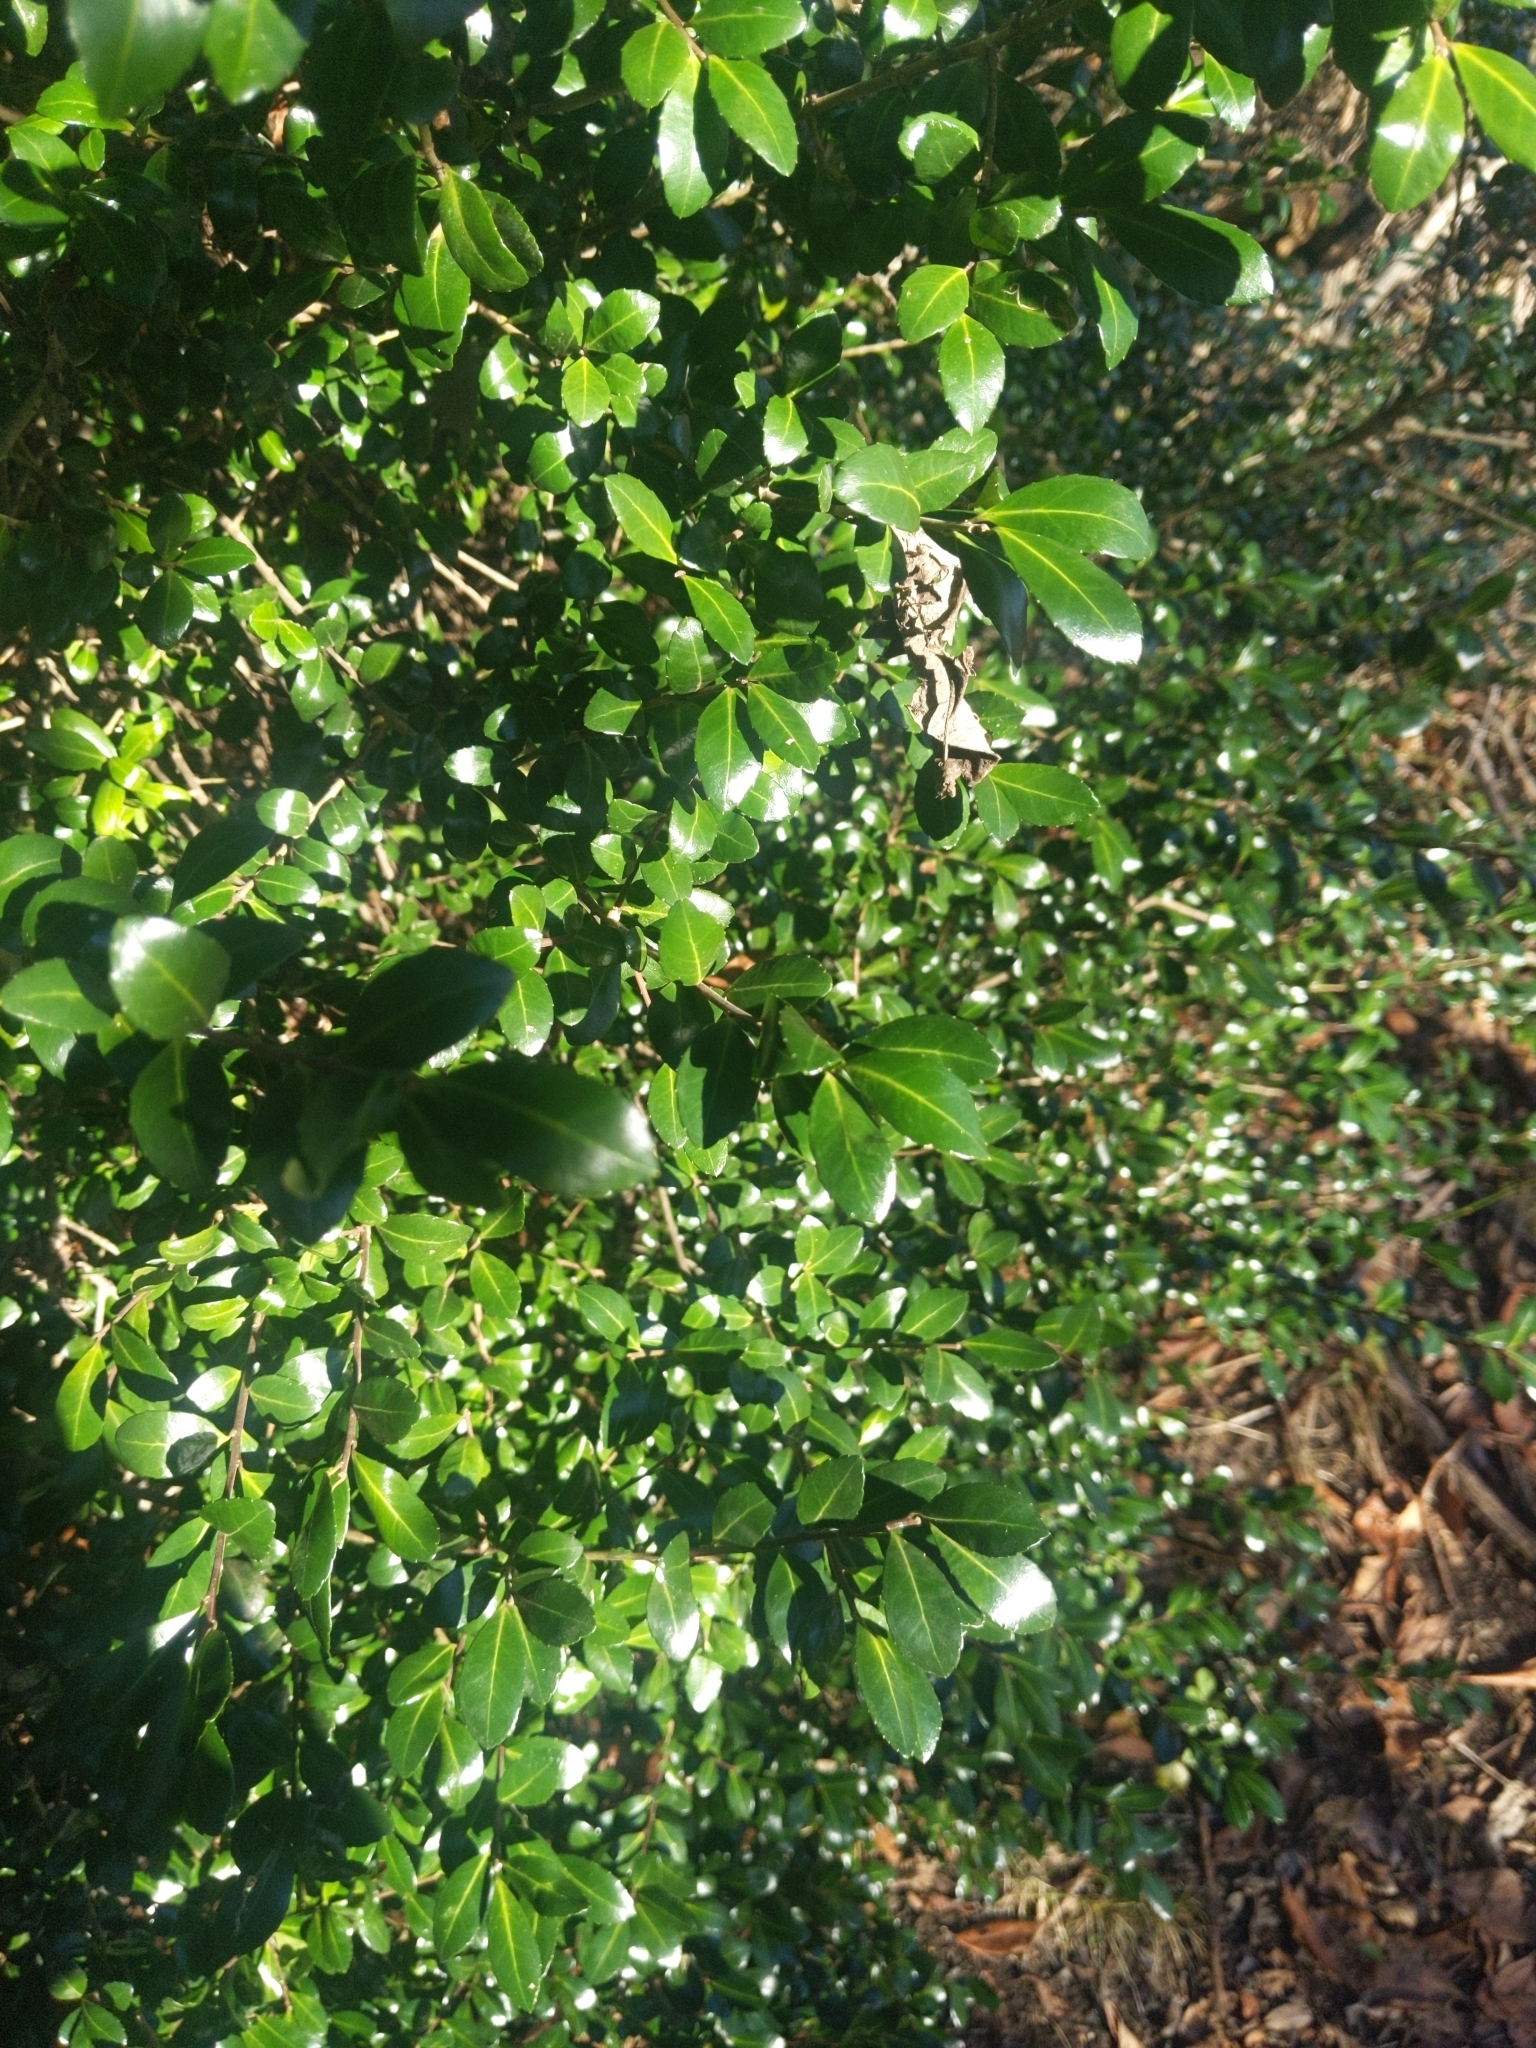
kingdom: Plantae
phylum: Tracheophyta
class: Magnoliopsida
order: Aquifoliales
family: Aquifoliaceae
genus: Ilex
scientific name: Ilex crenata
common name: Japanese holly
